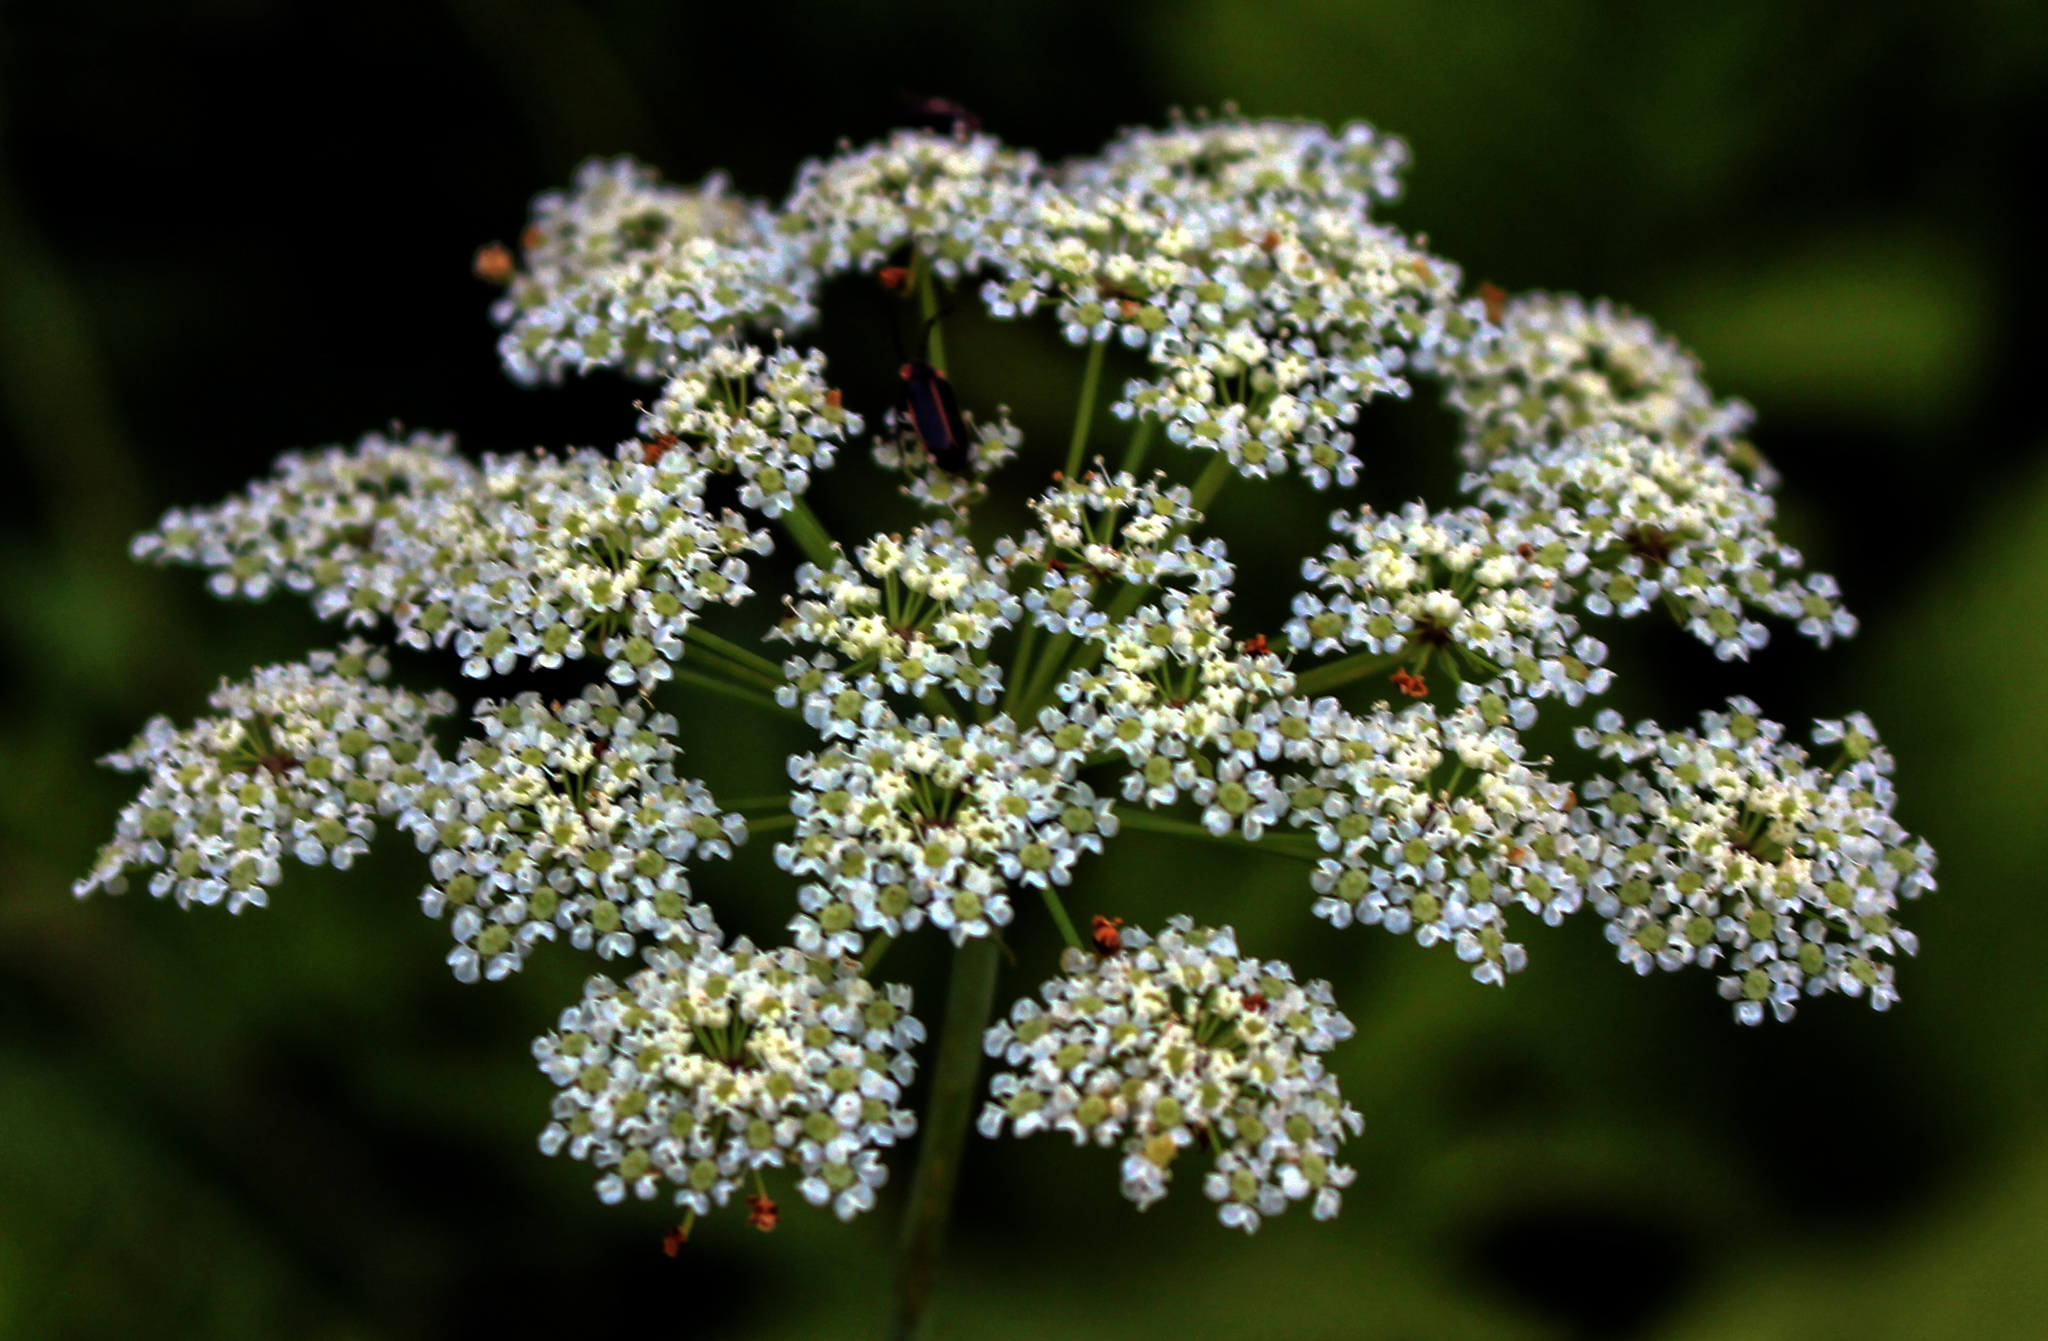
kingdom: Plantae
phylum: Tracheophyta
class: Magnoliopsida
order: Apiales
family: Apiaceae
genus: Cicuta
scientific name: Cicuta maculata
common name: Spotted cowbane
